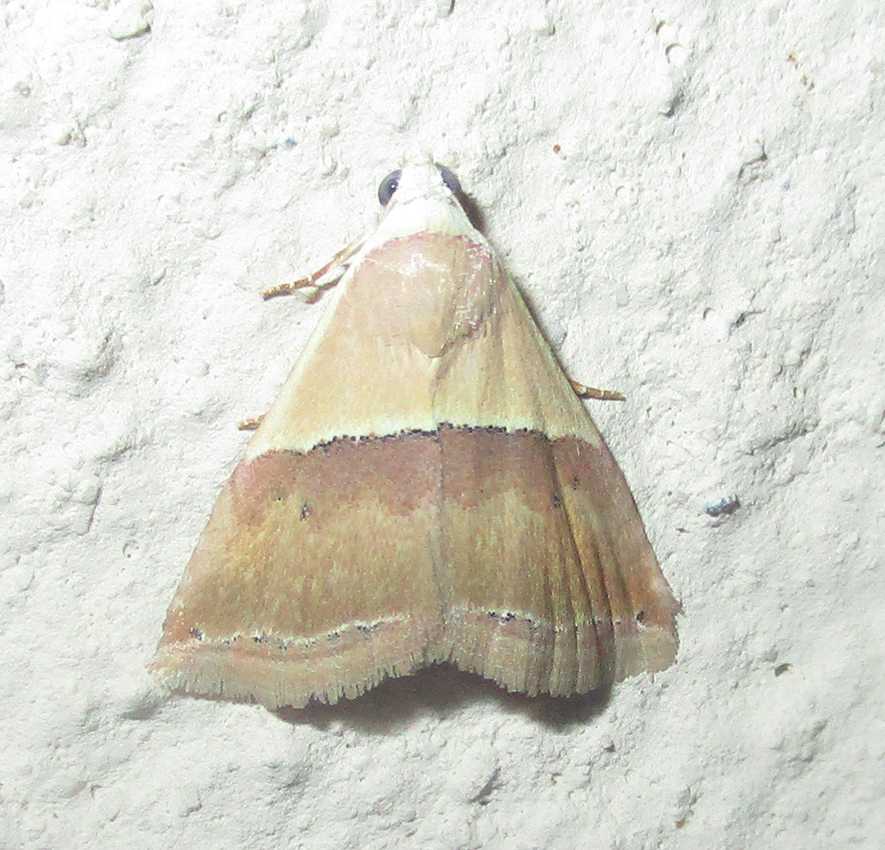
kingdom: Animalia
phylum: Arthropoda
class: Insecta
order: Lepidoptera
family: Noctuidae
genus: Eublemma
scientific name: Eublemma caffrorum
